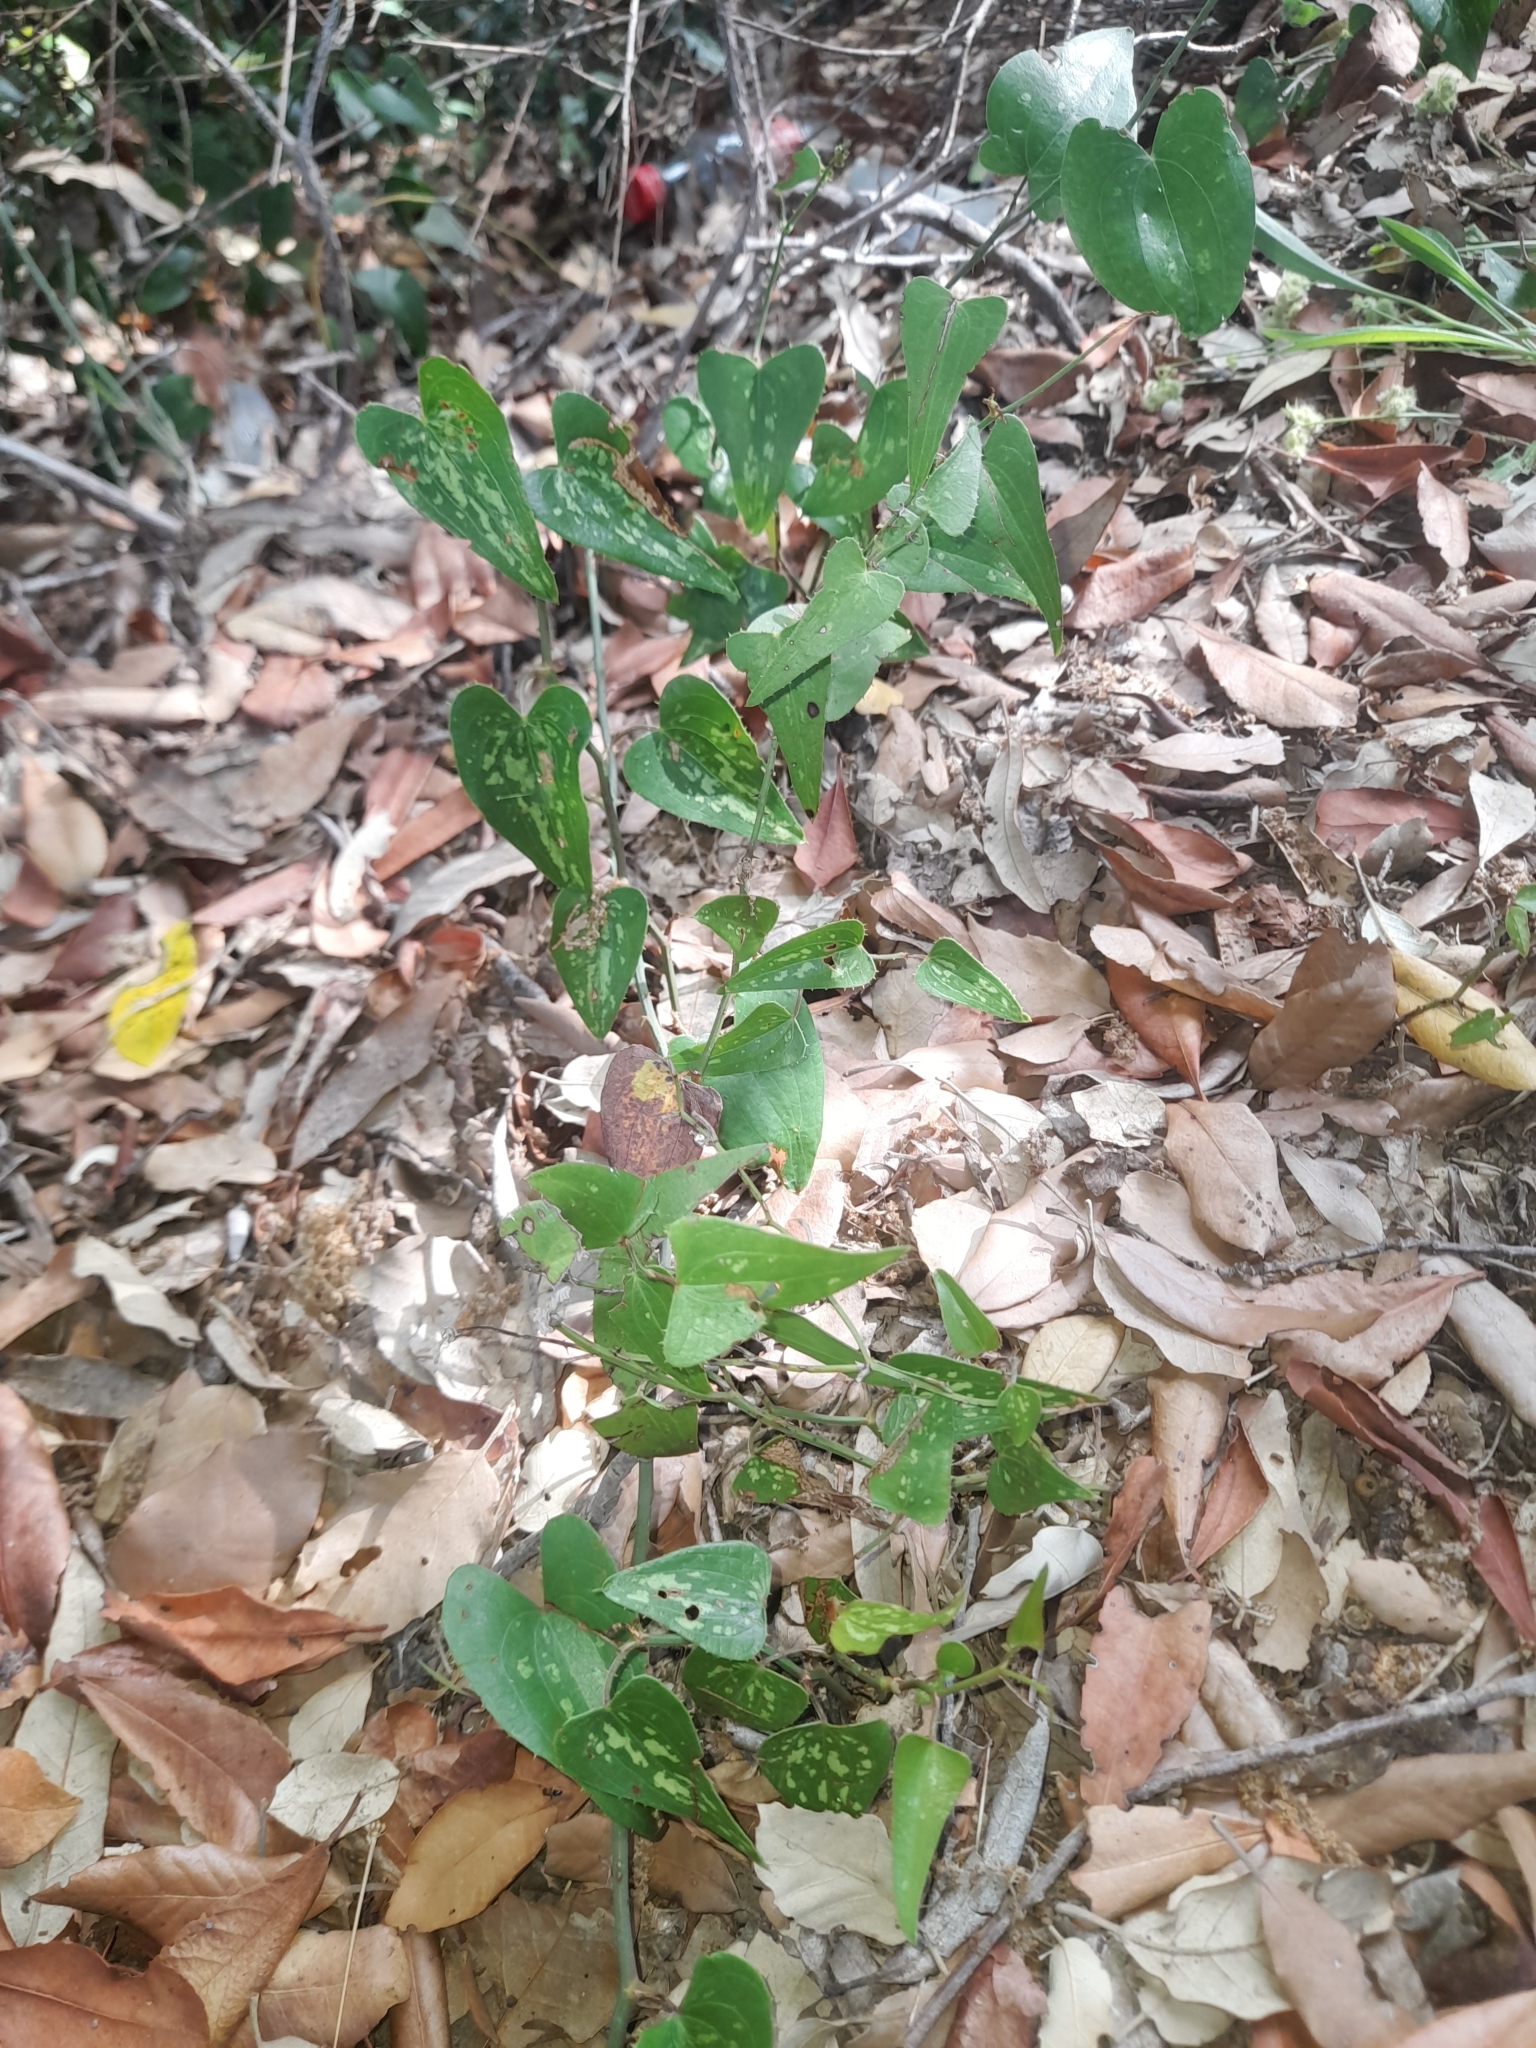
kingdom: Plantae
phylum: Tracheophyta
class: Liliopsida
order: Liliales
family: Smilacaceae
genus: Smilax
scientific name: Smilax aspera
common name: Common smilax
